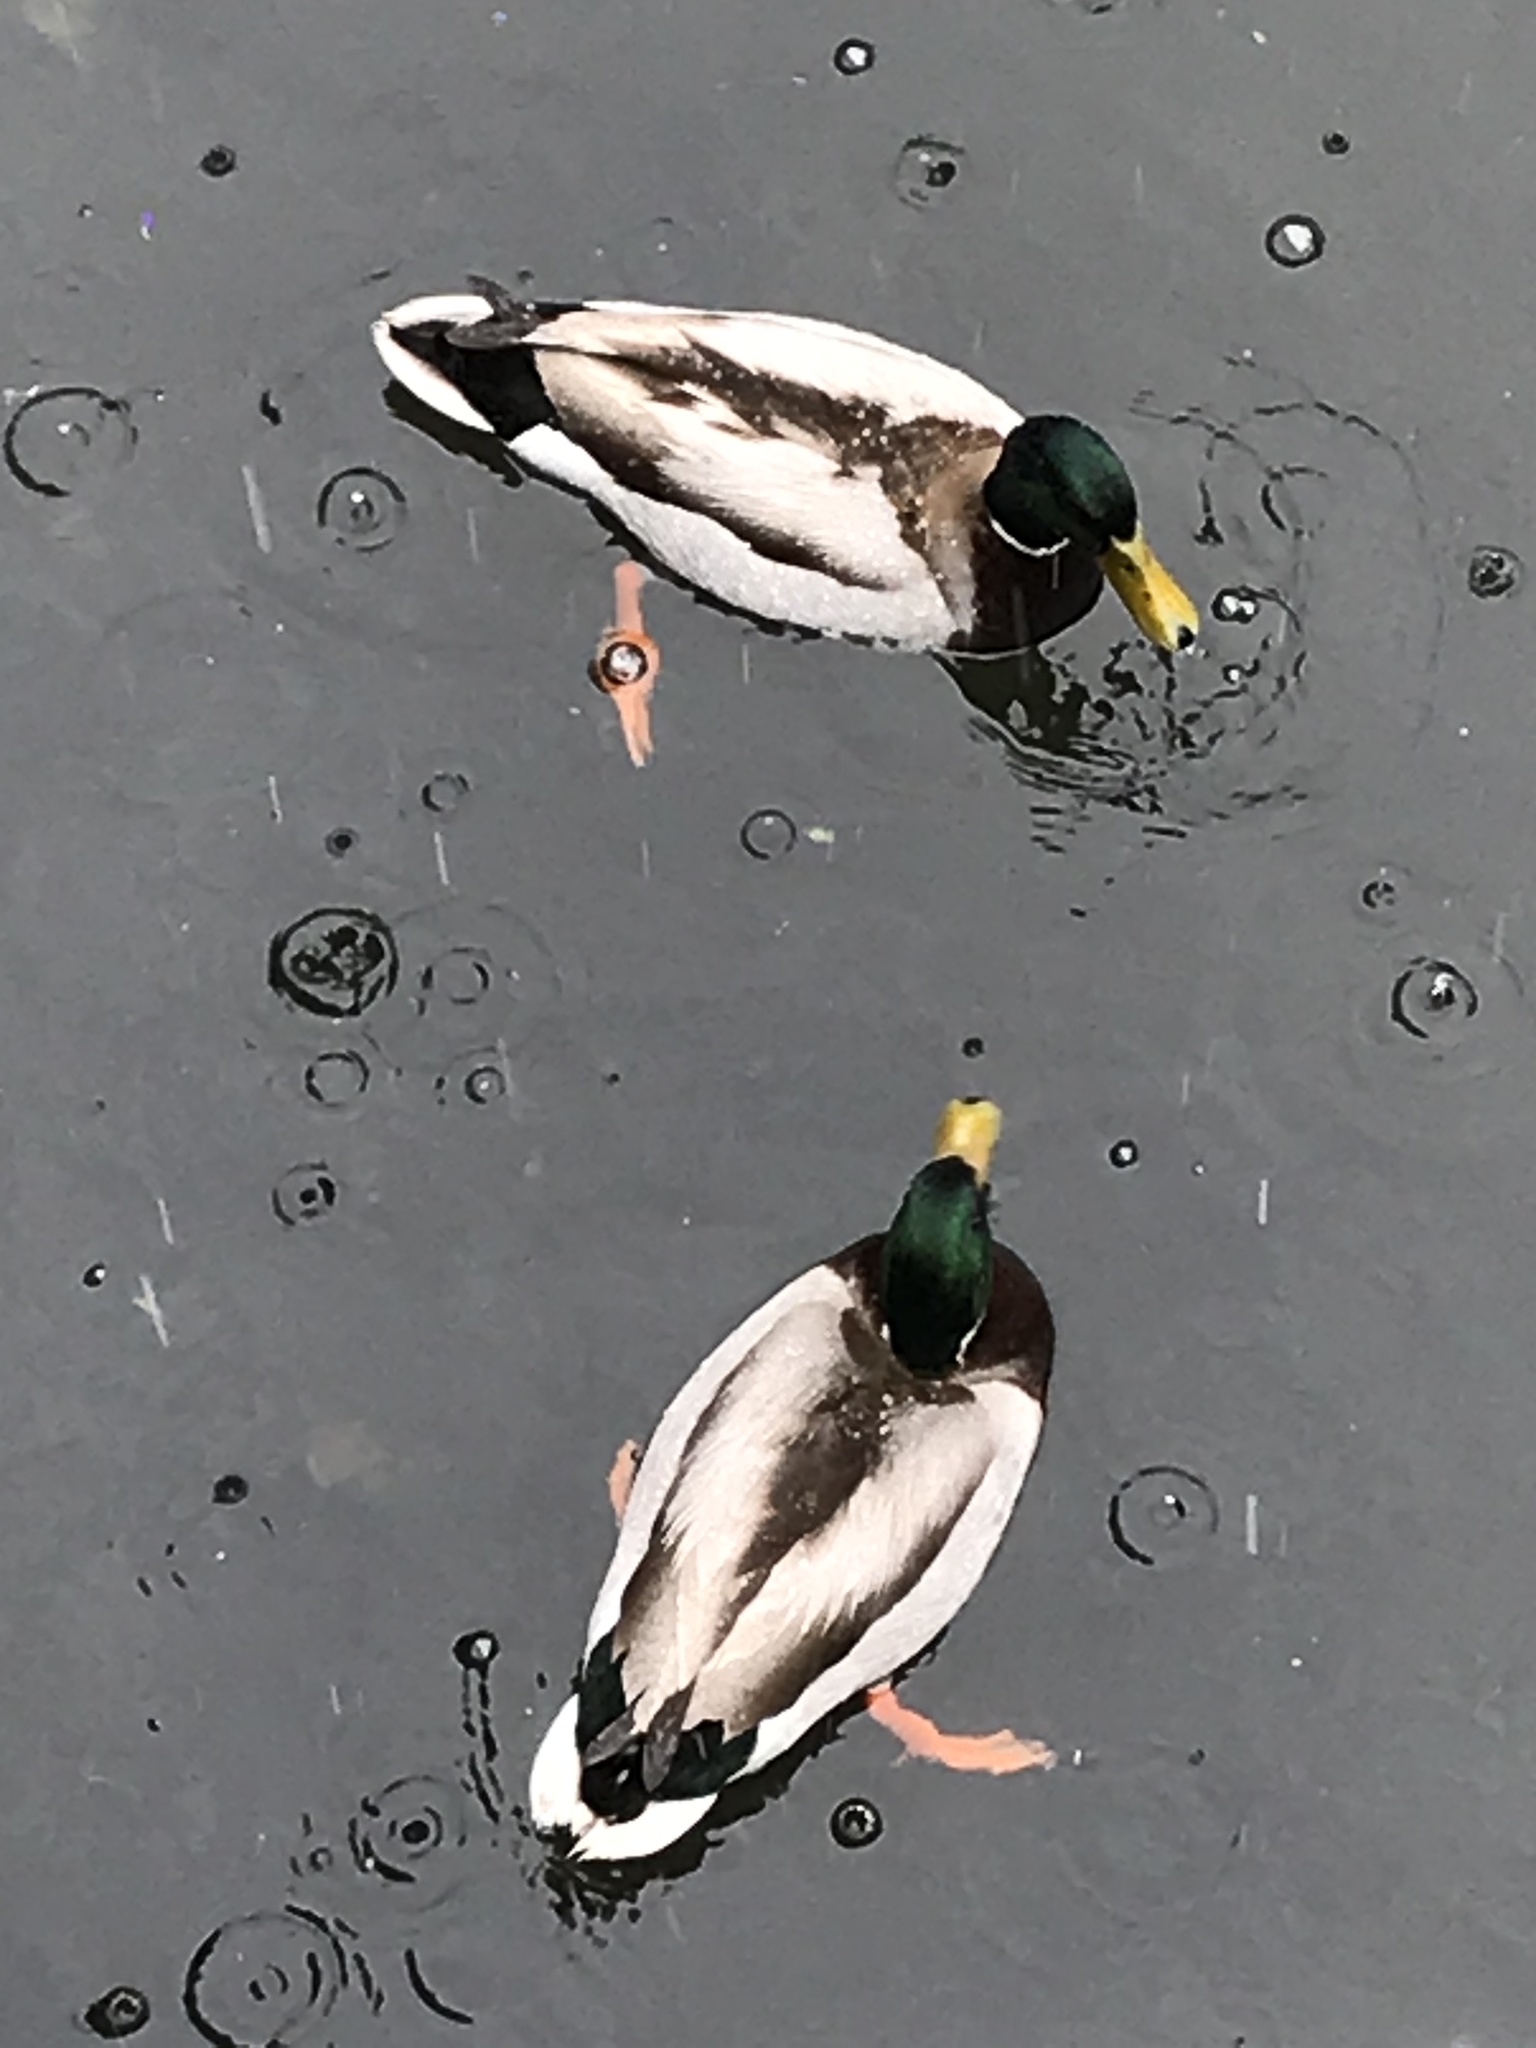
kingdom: Animalia
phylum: Chordata
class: Aves
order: Anseriformes
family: Anatidae
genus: Anas
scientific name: Anas platyrhynchos
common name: Mallard
